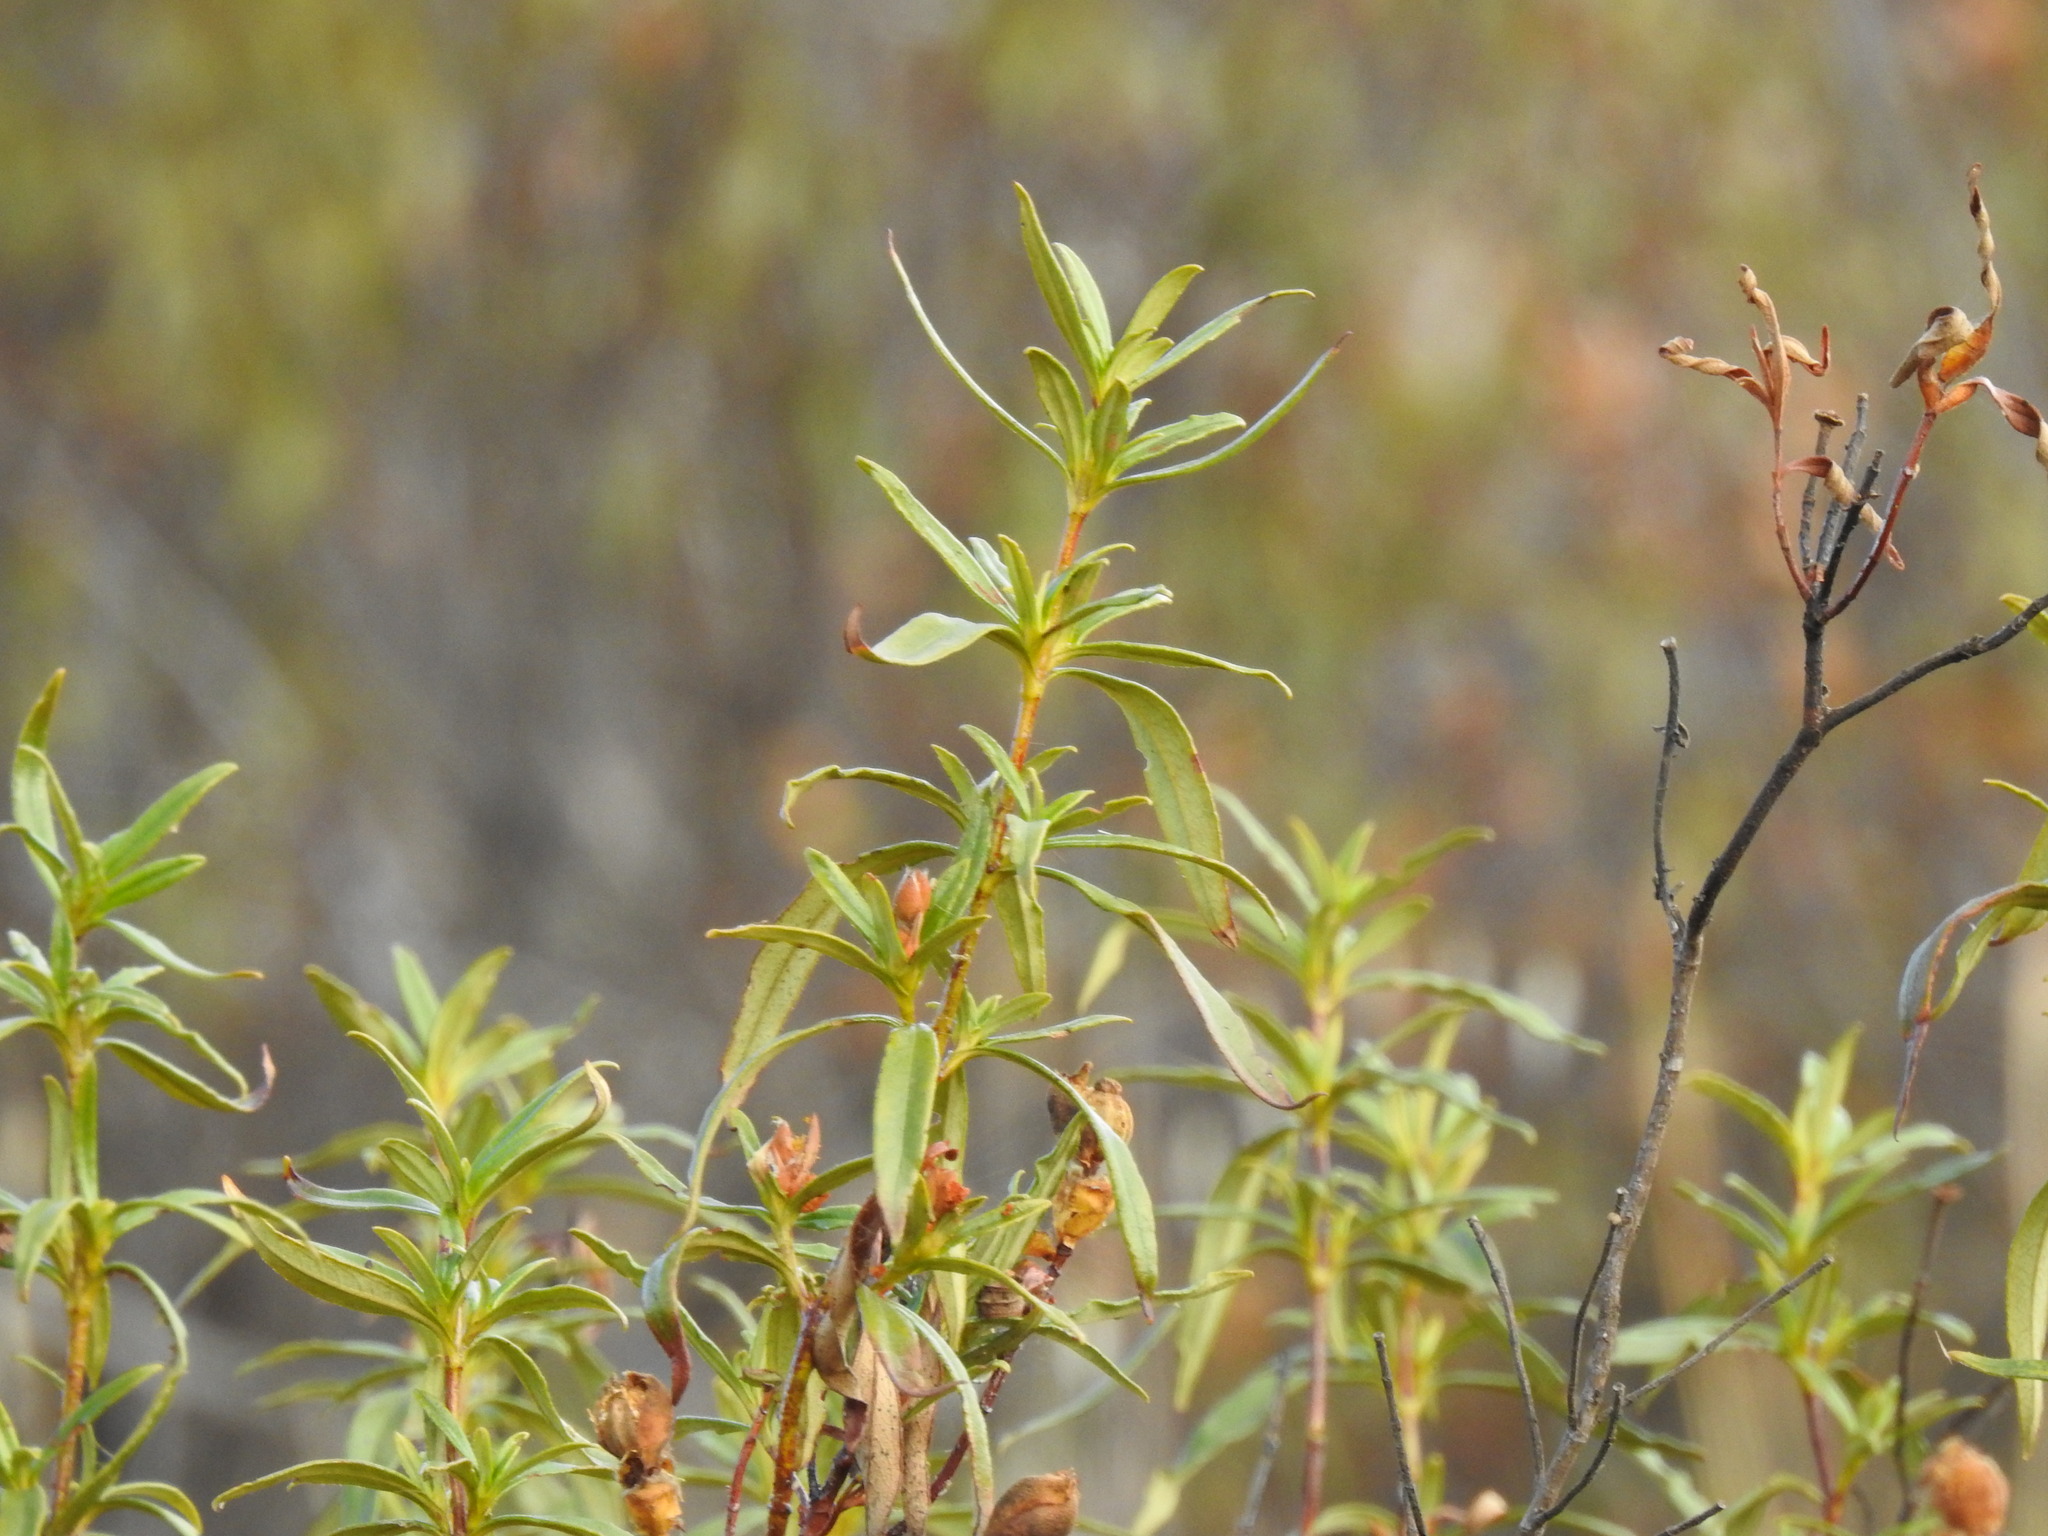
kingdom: Plantae
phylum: Tracheophyta
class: Magnoliopsida
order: Malvales
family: Cistaceae
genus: Cistus
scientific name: Cistus ladanifer
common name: Common gum cistus
